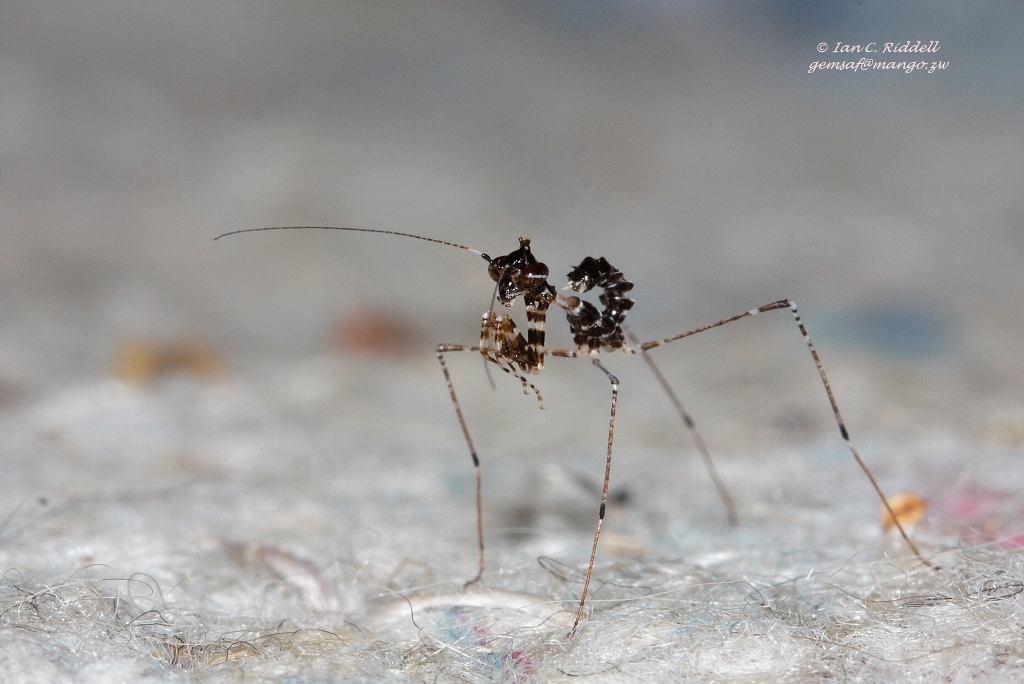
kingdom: Animalia
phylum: Arthropoda
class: Insecta
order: Mantodea
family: Hymenopodidae
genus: Sibylla
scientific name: Sibylla pretiosa
